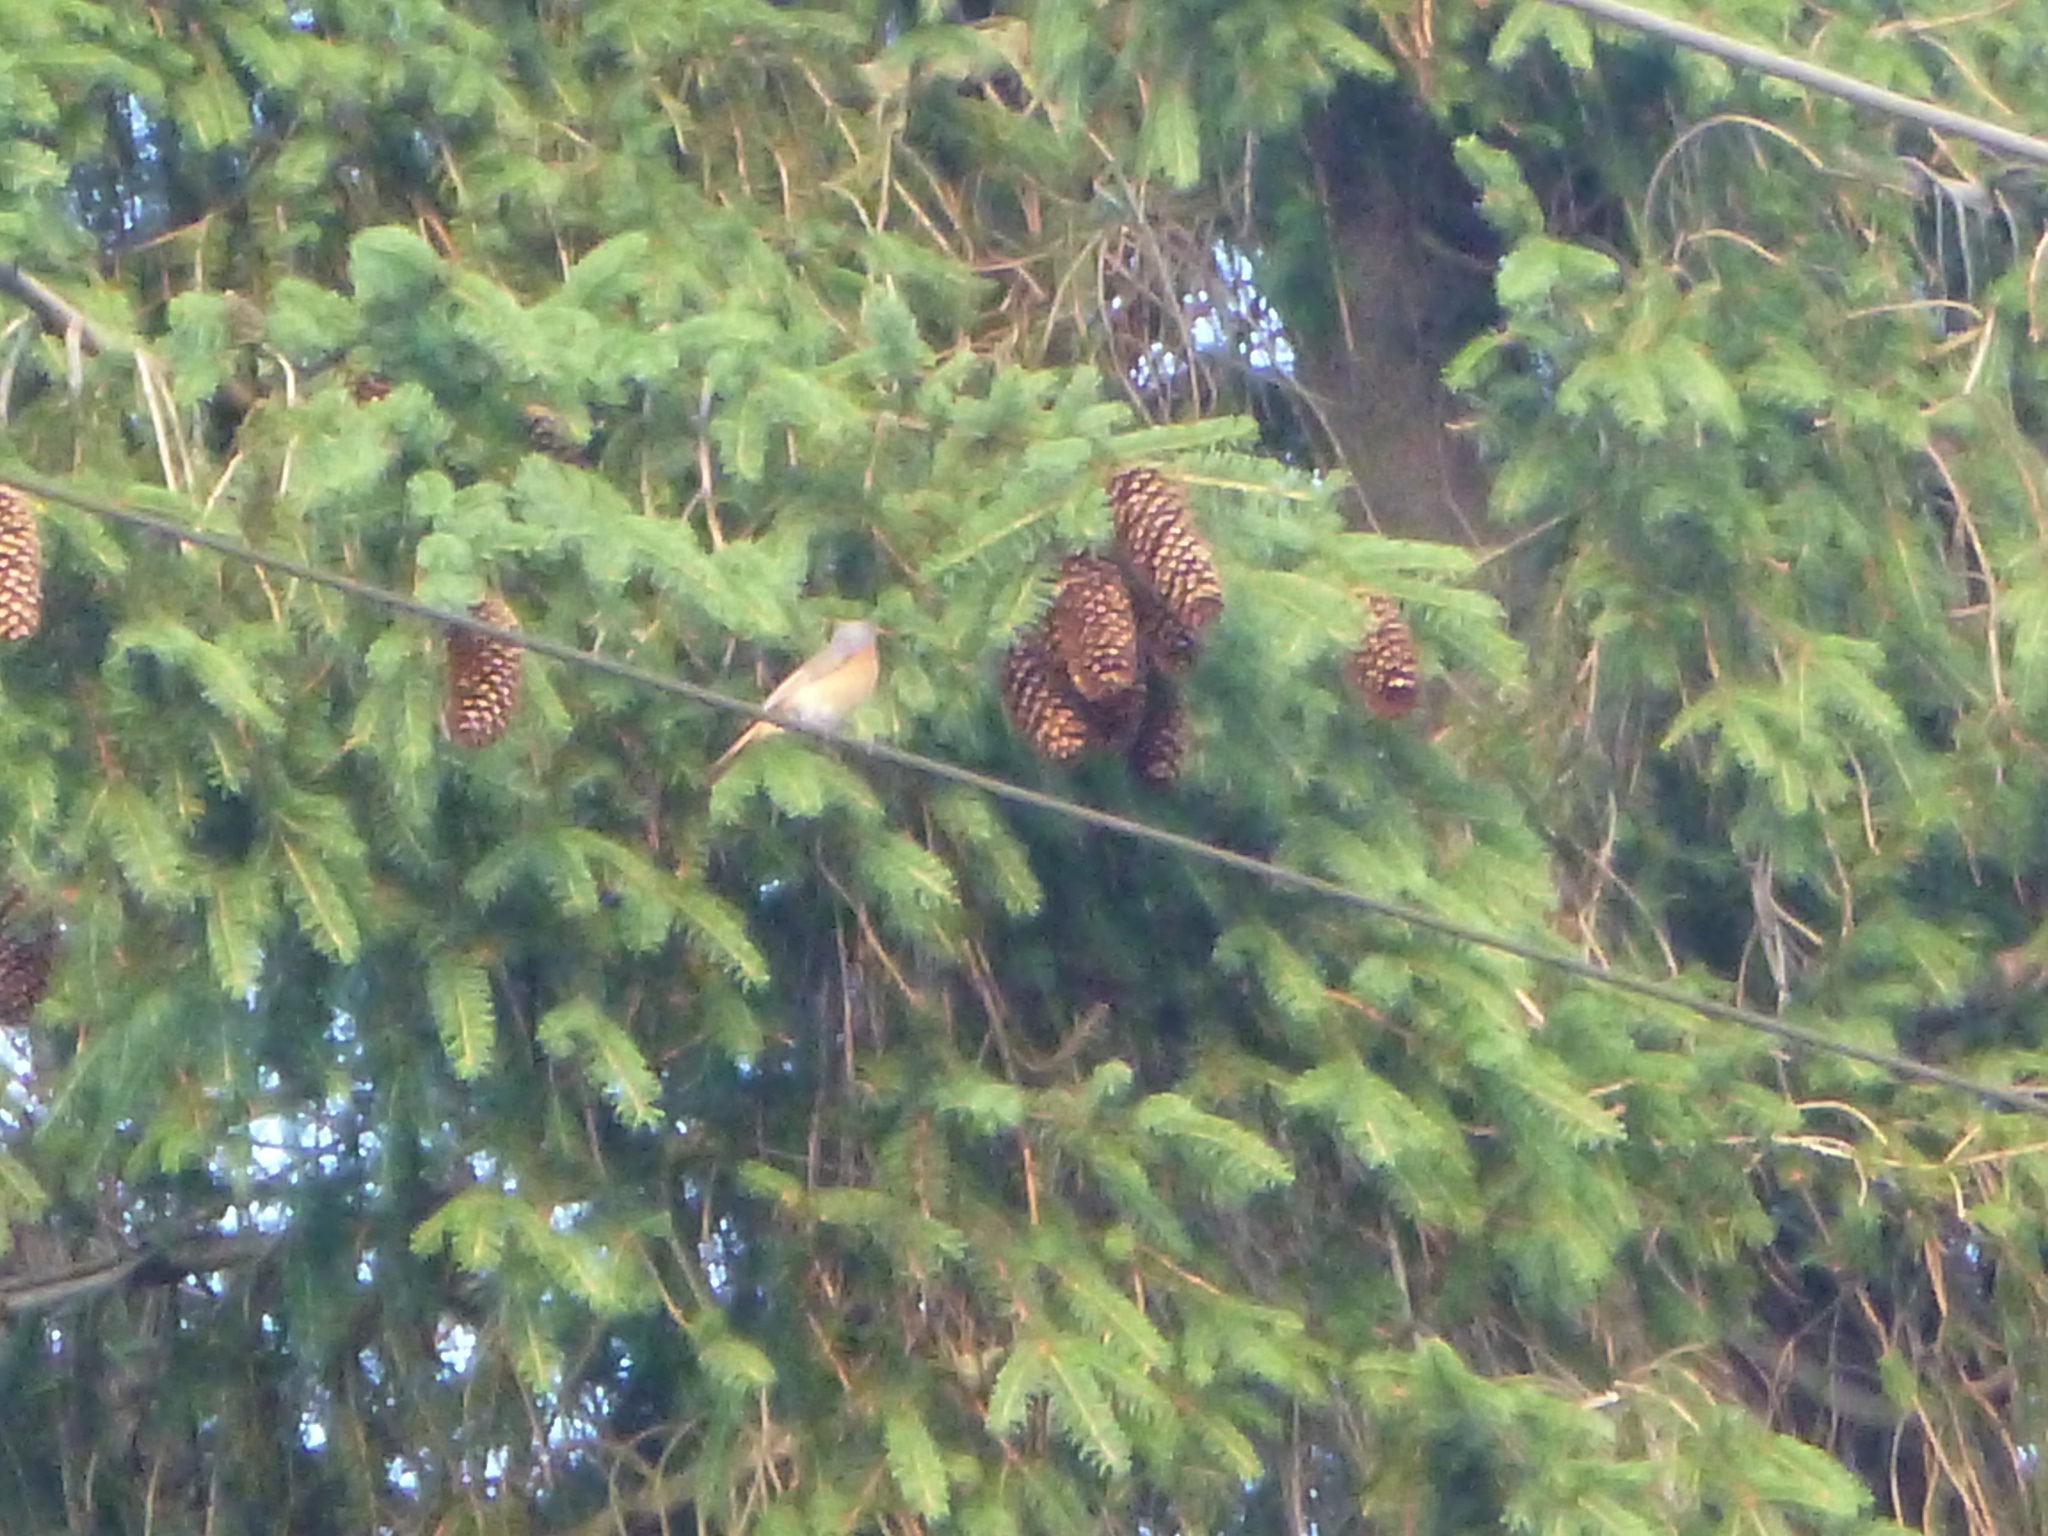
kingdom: Animalia
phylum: Chordata
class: Aves
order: Passeriformes
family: Muscicapidae
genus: Phoenicurus
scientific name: Phoenicurus phoenicurus
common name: Common redstart
